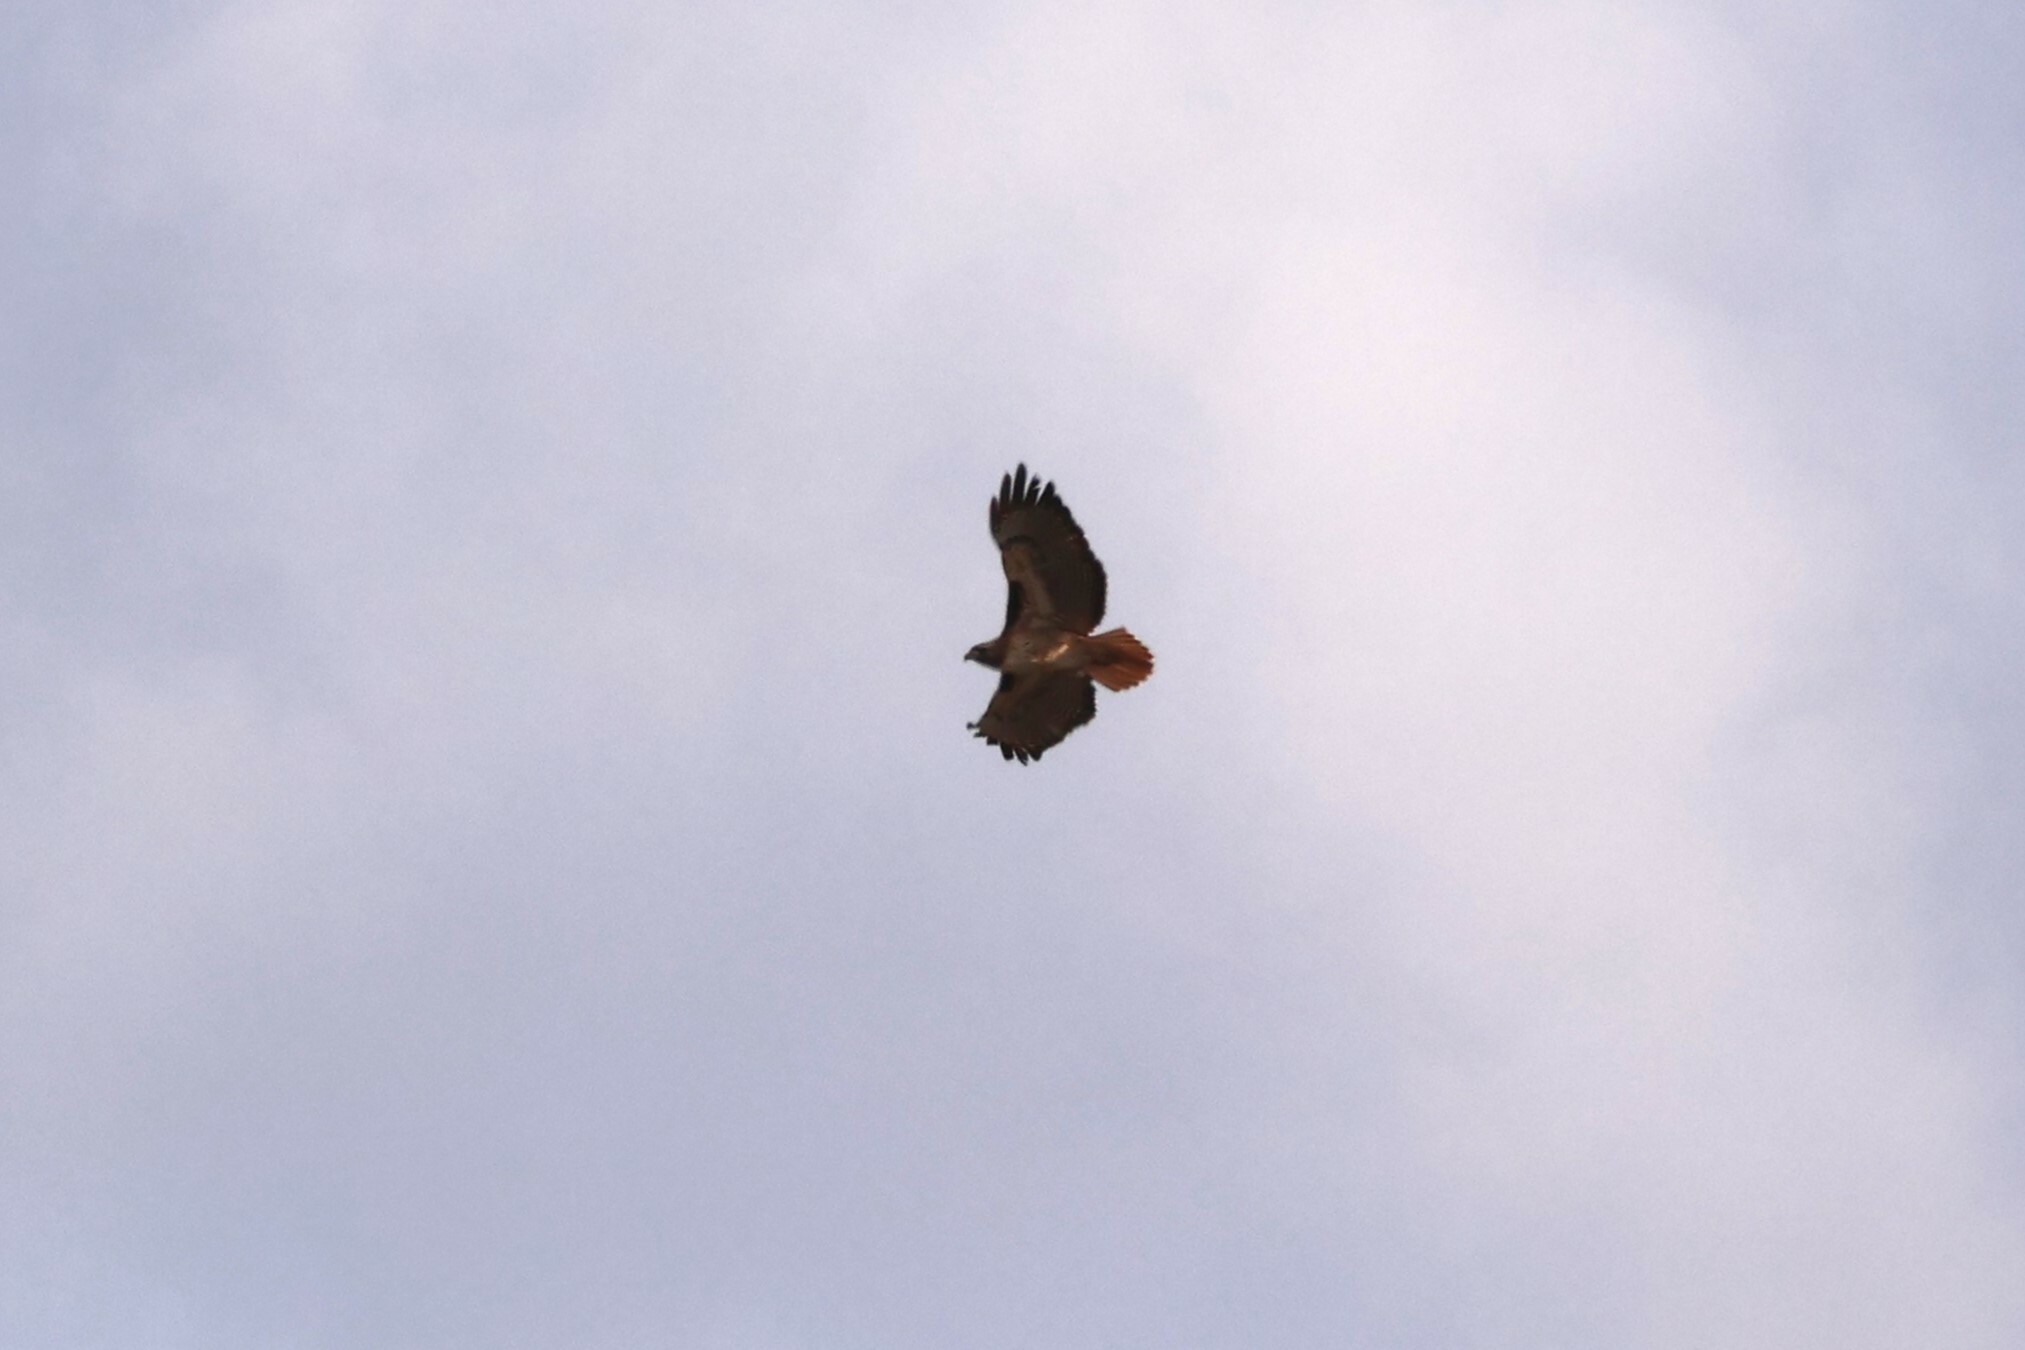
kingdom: Animalia
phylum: Chordata
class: Aves
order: Accipitriformes
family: Accipitridae
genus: Buteo
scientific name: Buteo jamaicensis
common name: Red-tailed hawk
